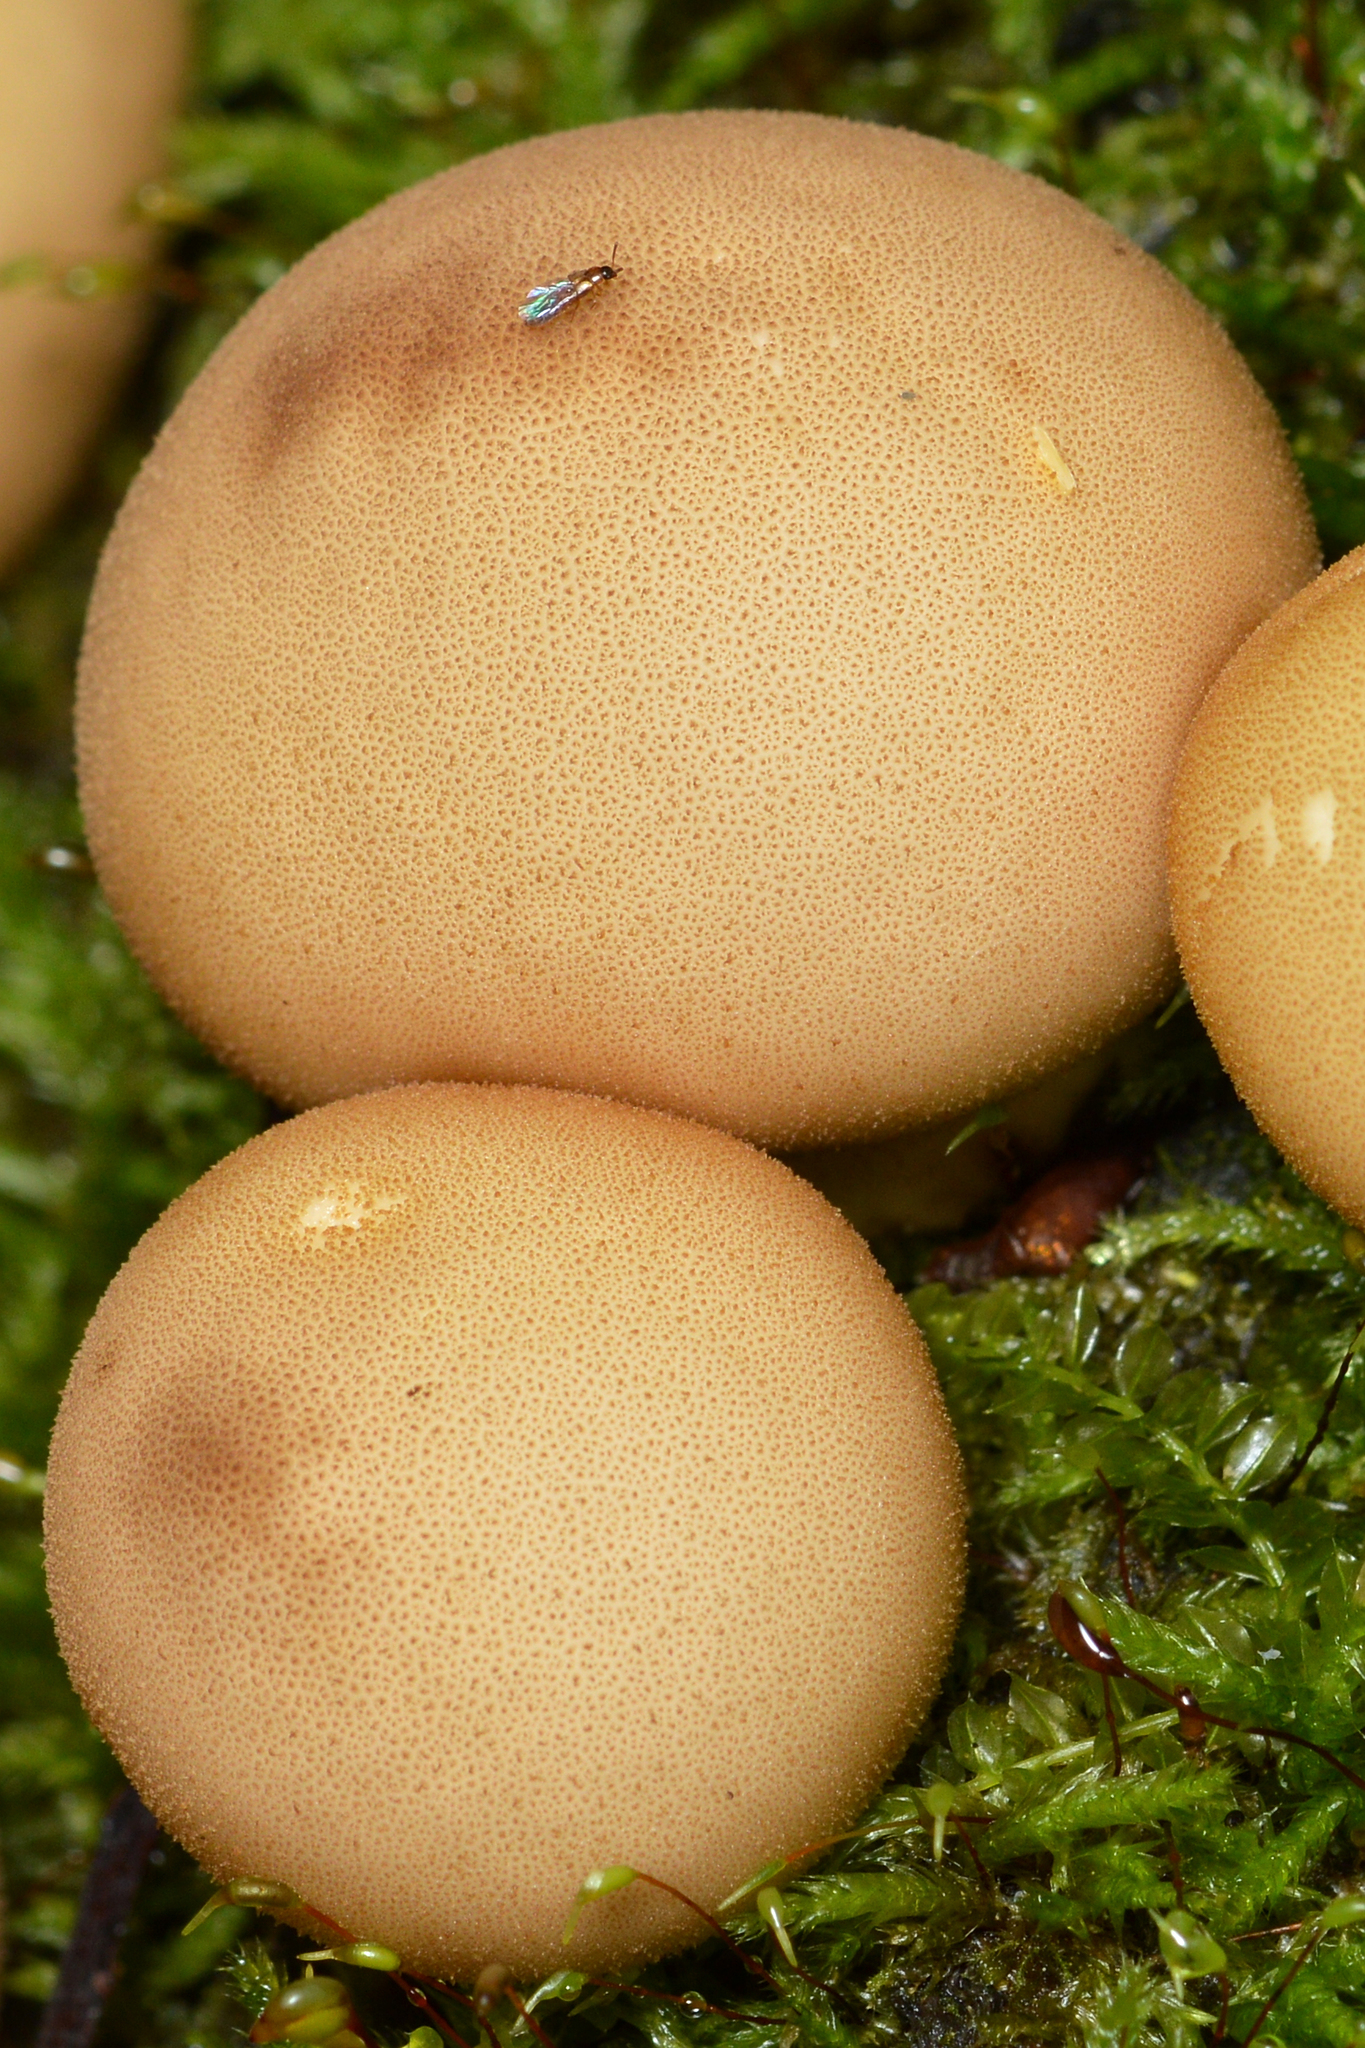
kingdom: Fungi
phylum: Basidiomycota
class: Agaricomycetes
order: Agaricales
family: Lycoperdaceae
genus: Apioperdon
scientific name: Apioperdon pyriforme
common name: Pear-shaped puffball
